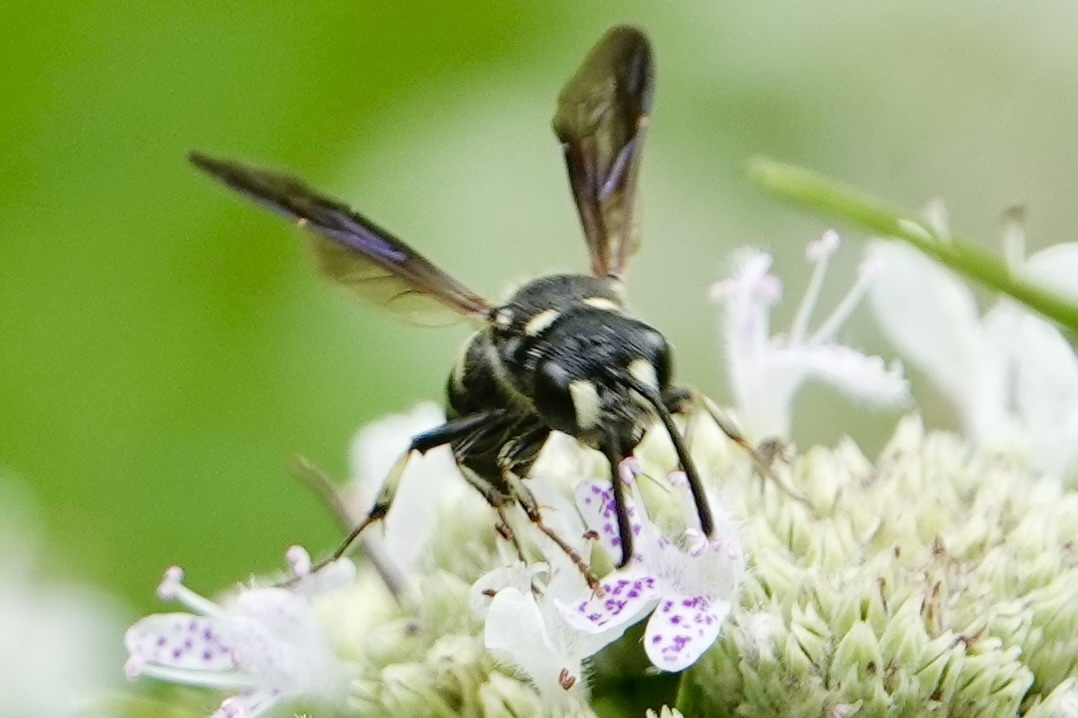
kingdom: Animalia
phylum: Arthropoda
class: Insecta
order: Hymenoptera
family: Crabronidae
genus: Cerceris
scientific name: Cerceris fumipennis
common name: Smokey-winged beetle bandit wasp
